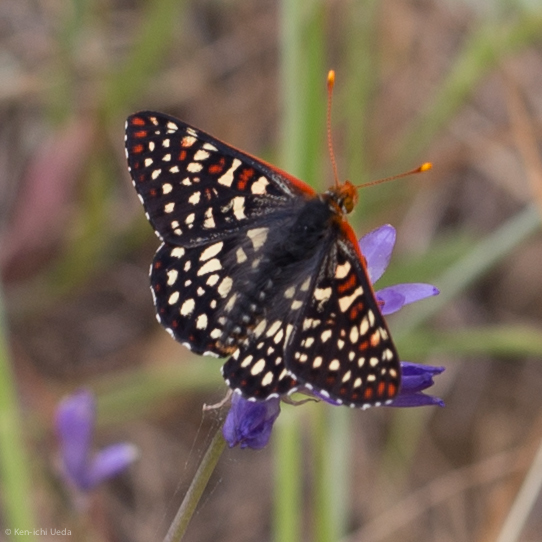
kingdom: Animalia
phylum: Arthropoda
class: Insecta
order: Lepidoptera
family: Nymphalidae
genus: Occidryas
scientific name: Occidryas chalcedona
